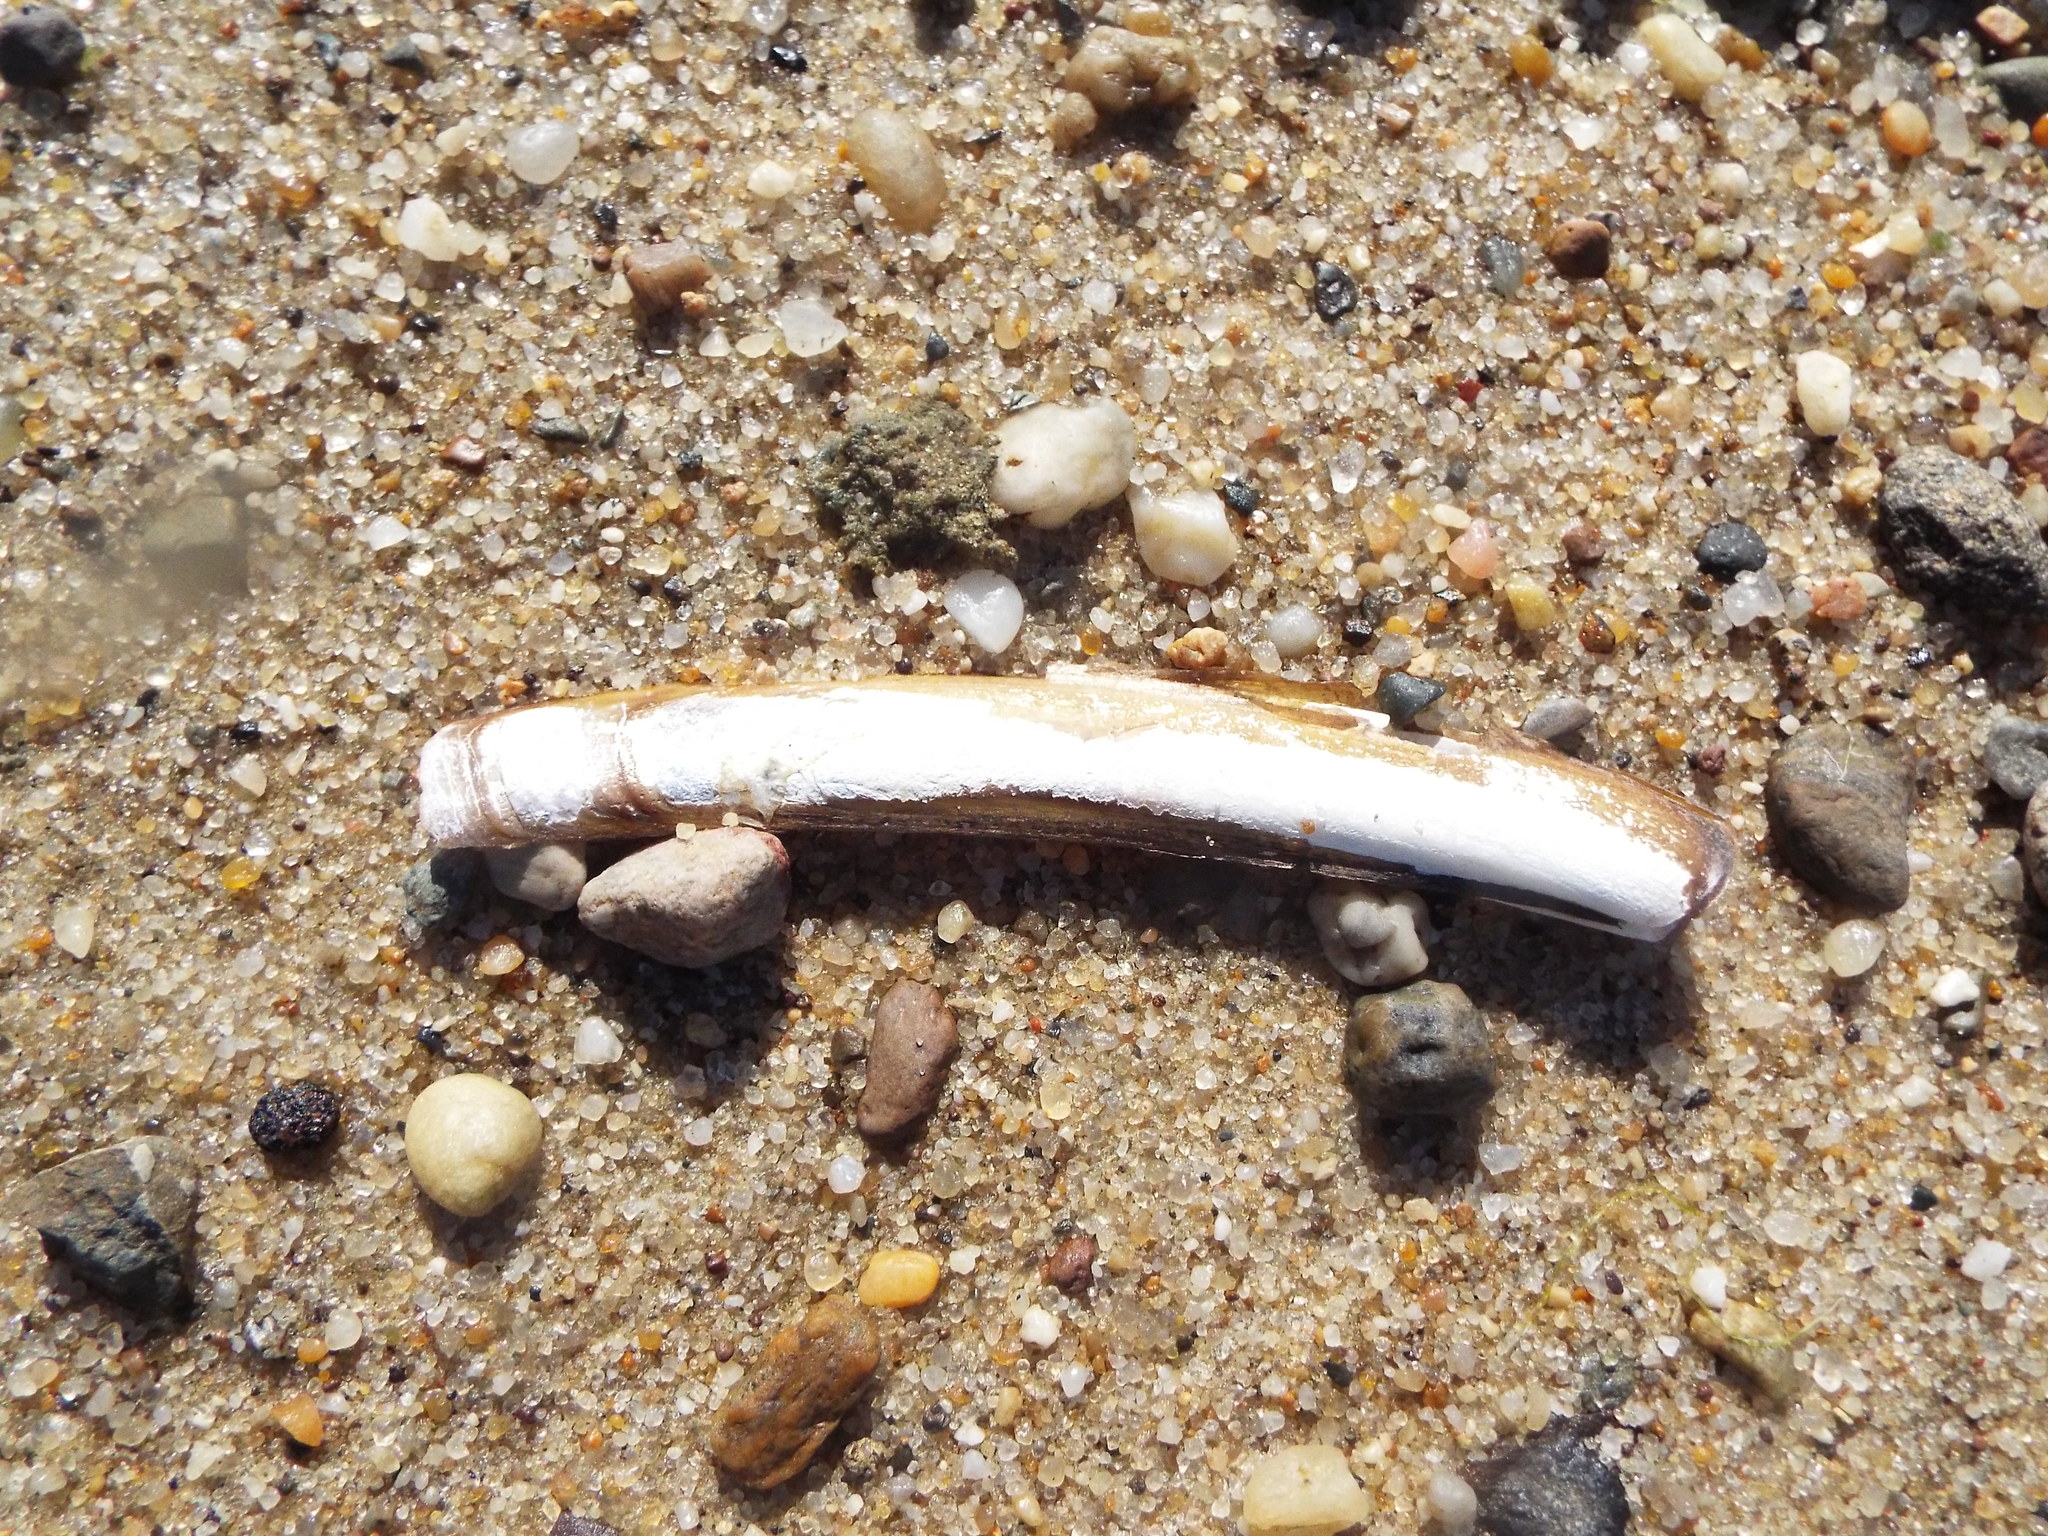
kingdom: Animalia
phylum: Mollusca
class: Bivalvia
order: Adapedonta
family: Pharidae
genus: Ensis
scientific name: Ensis leei
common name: American jack knife clam
